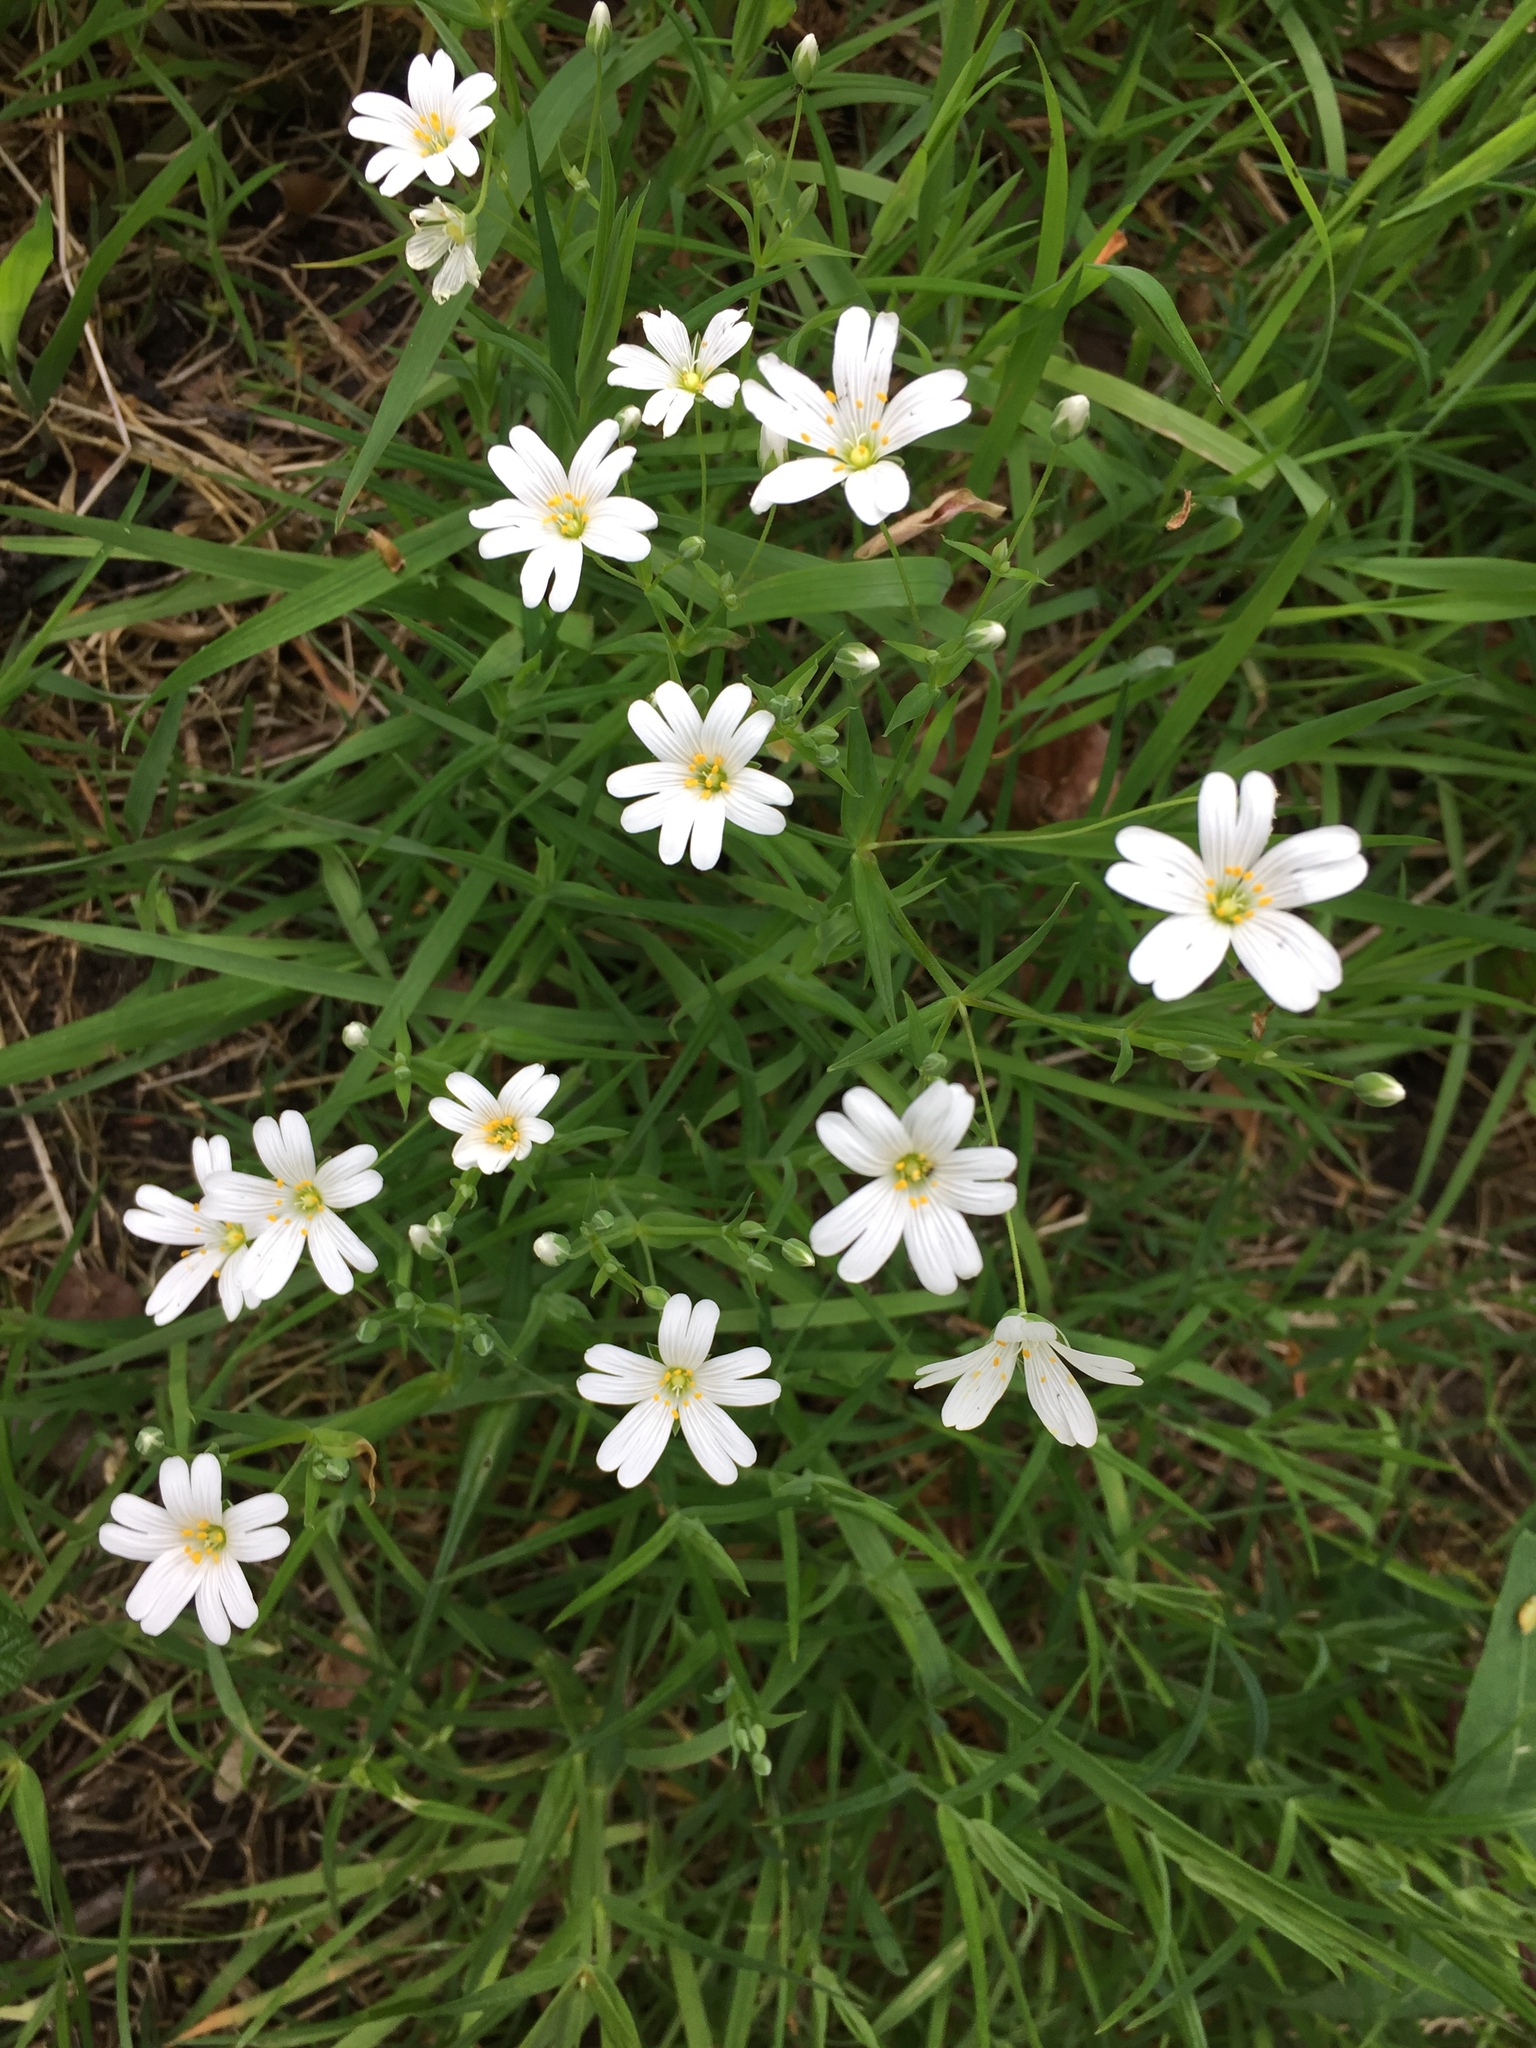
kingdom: Plantae
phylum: Tracheophyta
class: Magnoliopsida
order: Caryophyllales
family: Caryophyllaceae
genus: Rabelera
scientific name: Rabelera holostea
